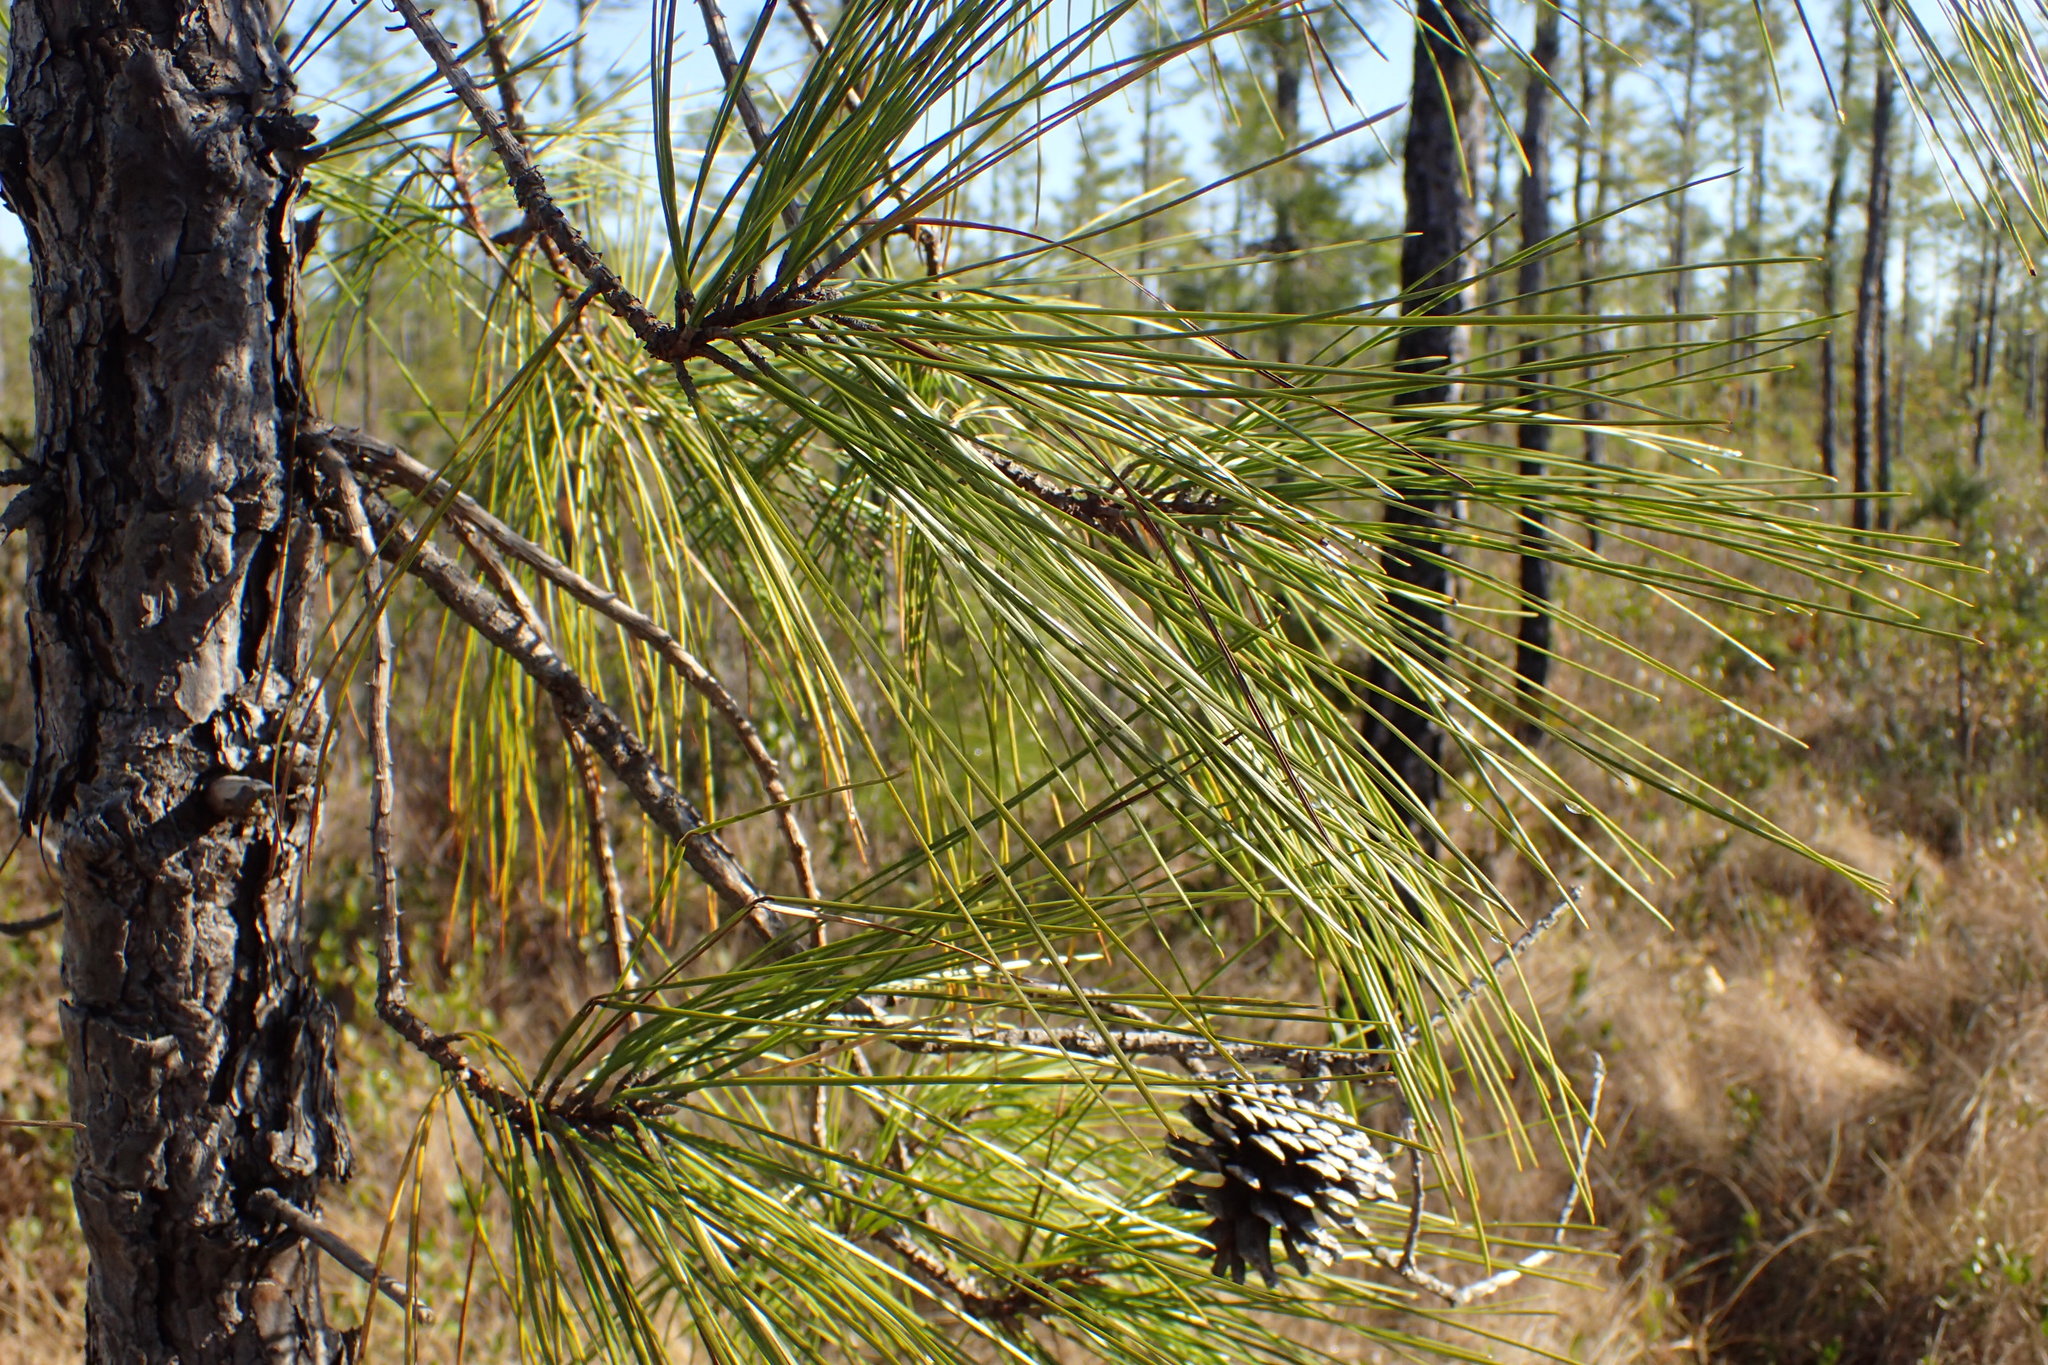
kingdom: Plantae
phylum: Tracheophyta
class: Pinopsida
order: Pinales
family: Pinaceae
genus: Pinus
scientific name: Pinus serotina
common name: Marsh pine
